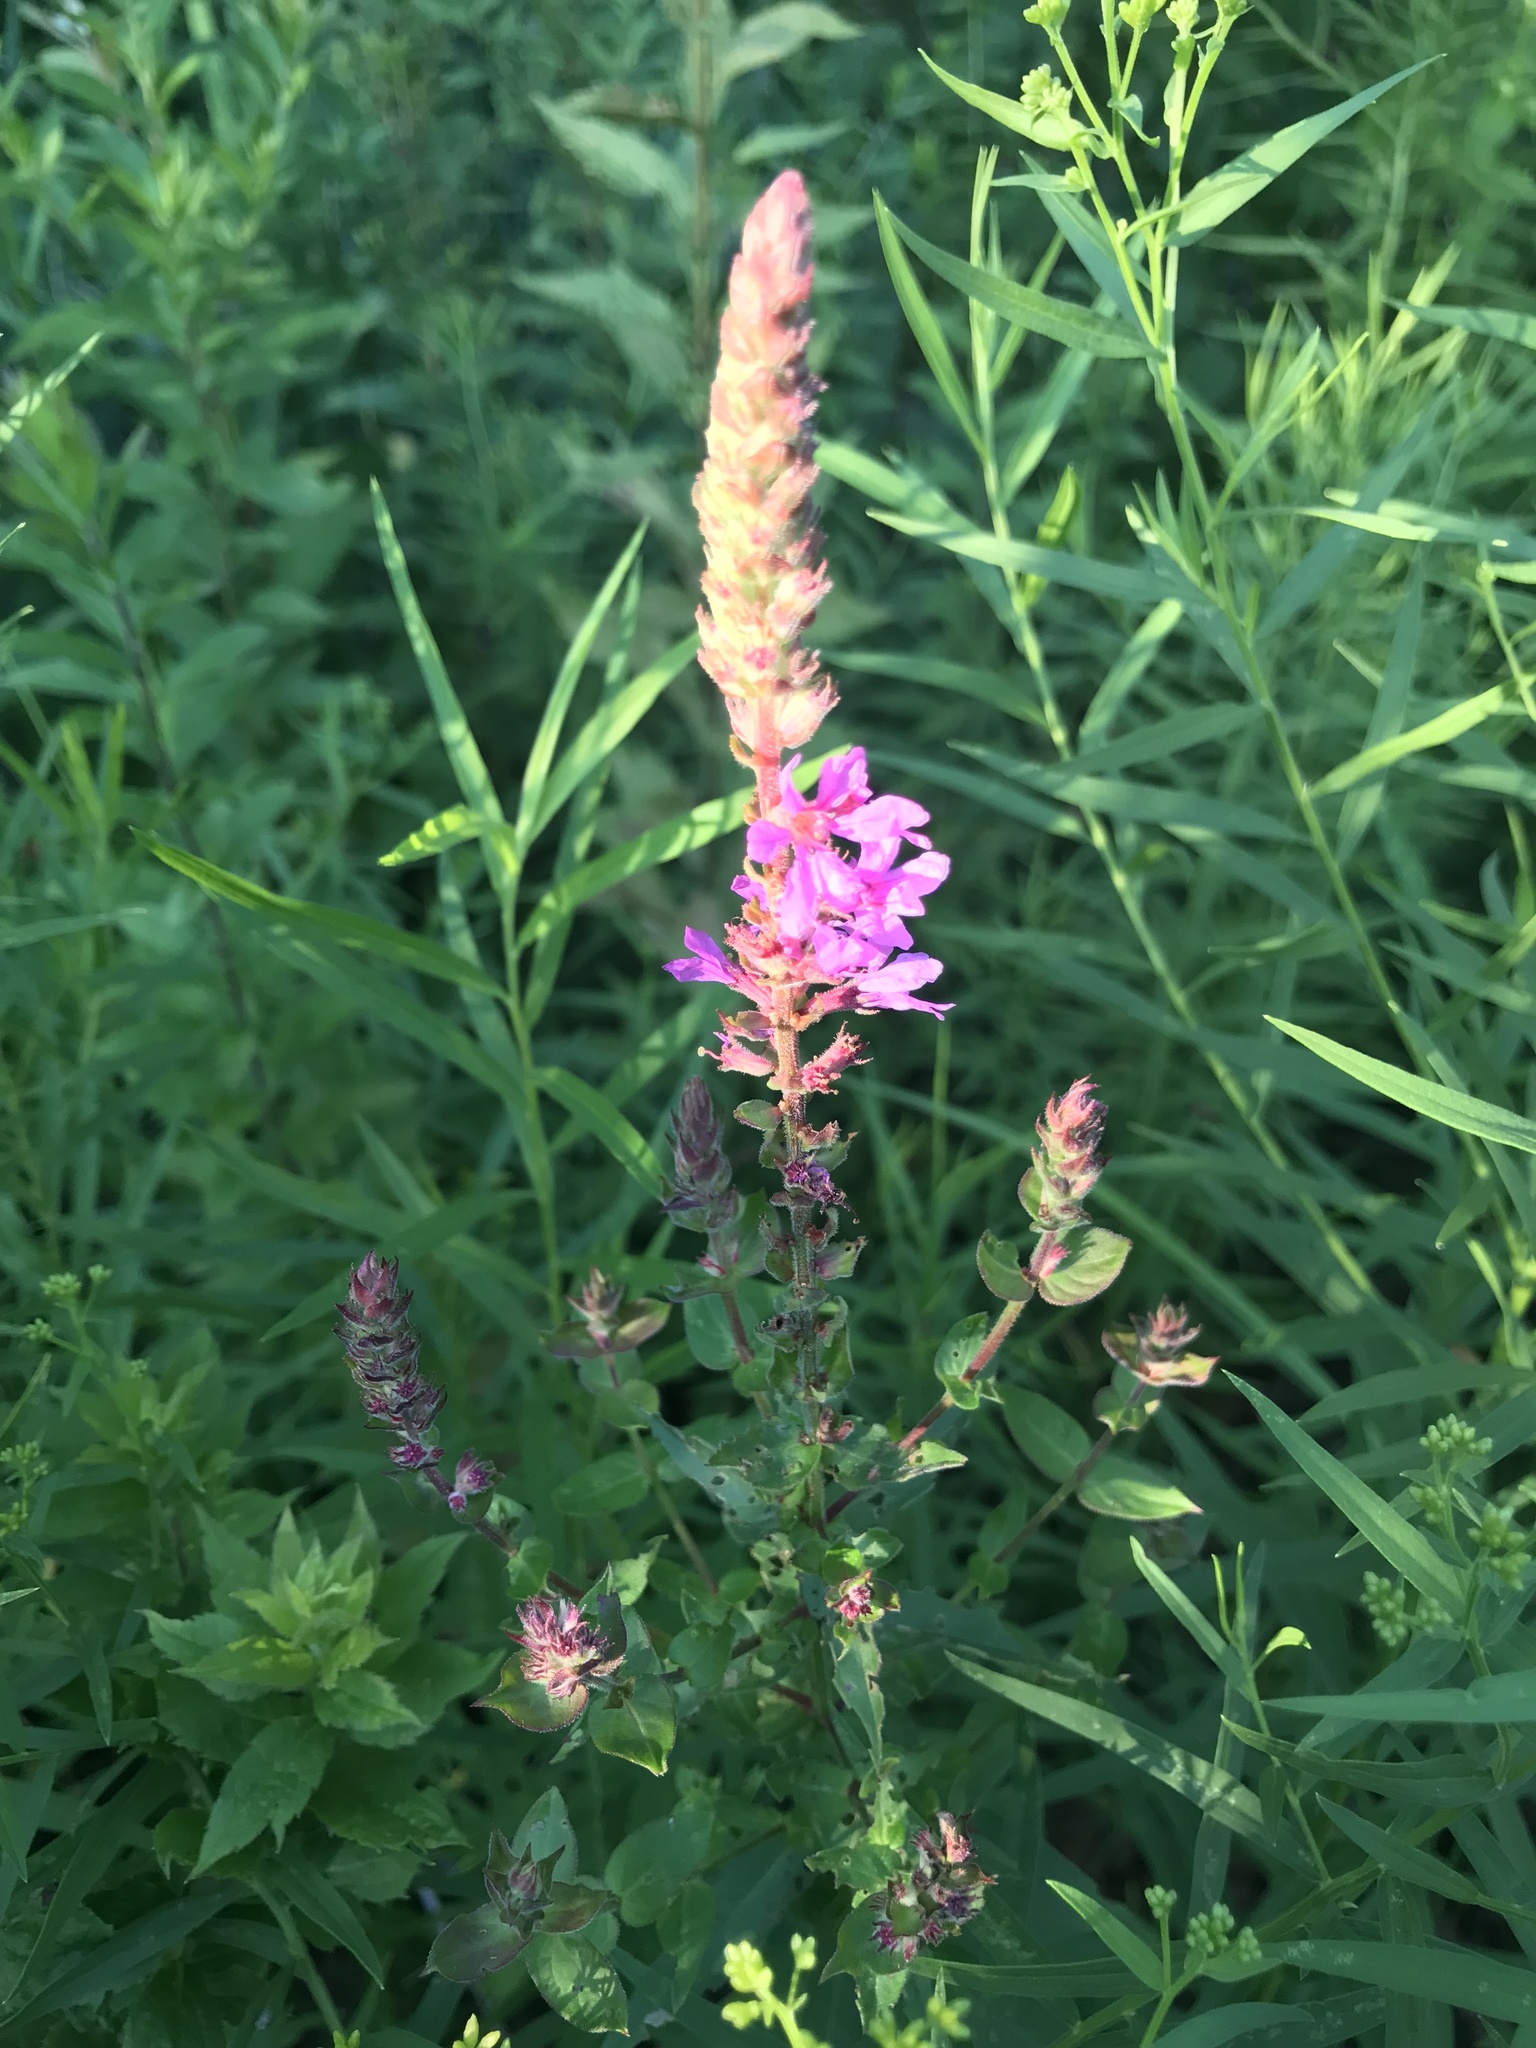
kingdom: Plantae
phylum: Tracheophyta
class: Magnoliopsida
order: Myrtales
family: Lythraceae
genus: Lythrum
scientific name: Lythrum salicaria
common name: Purple loosestrife
